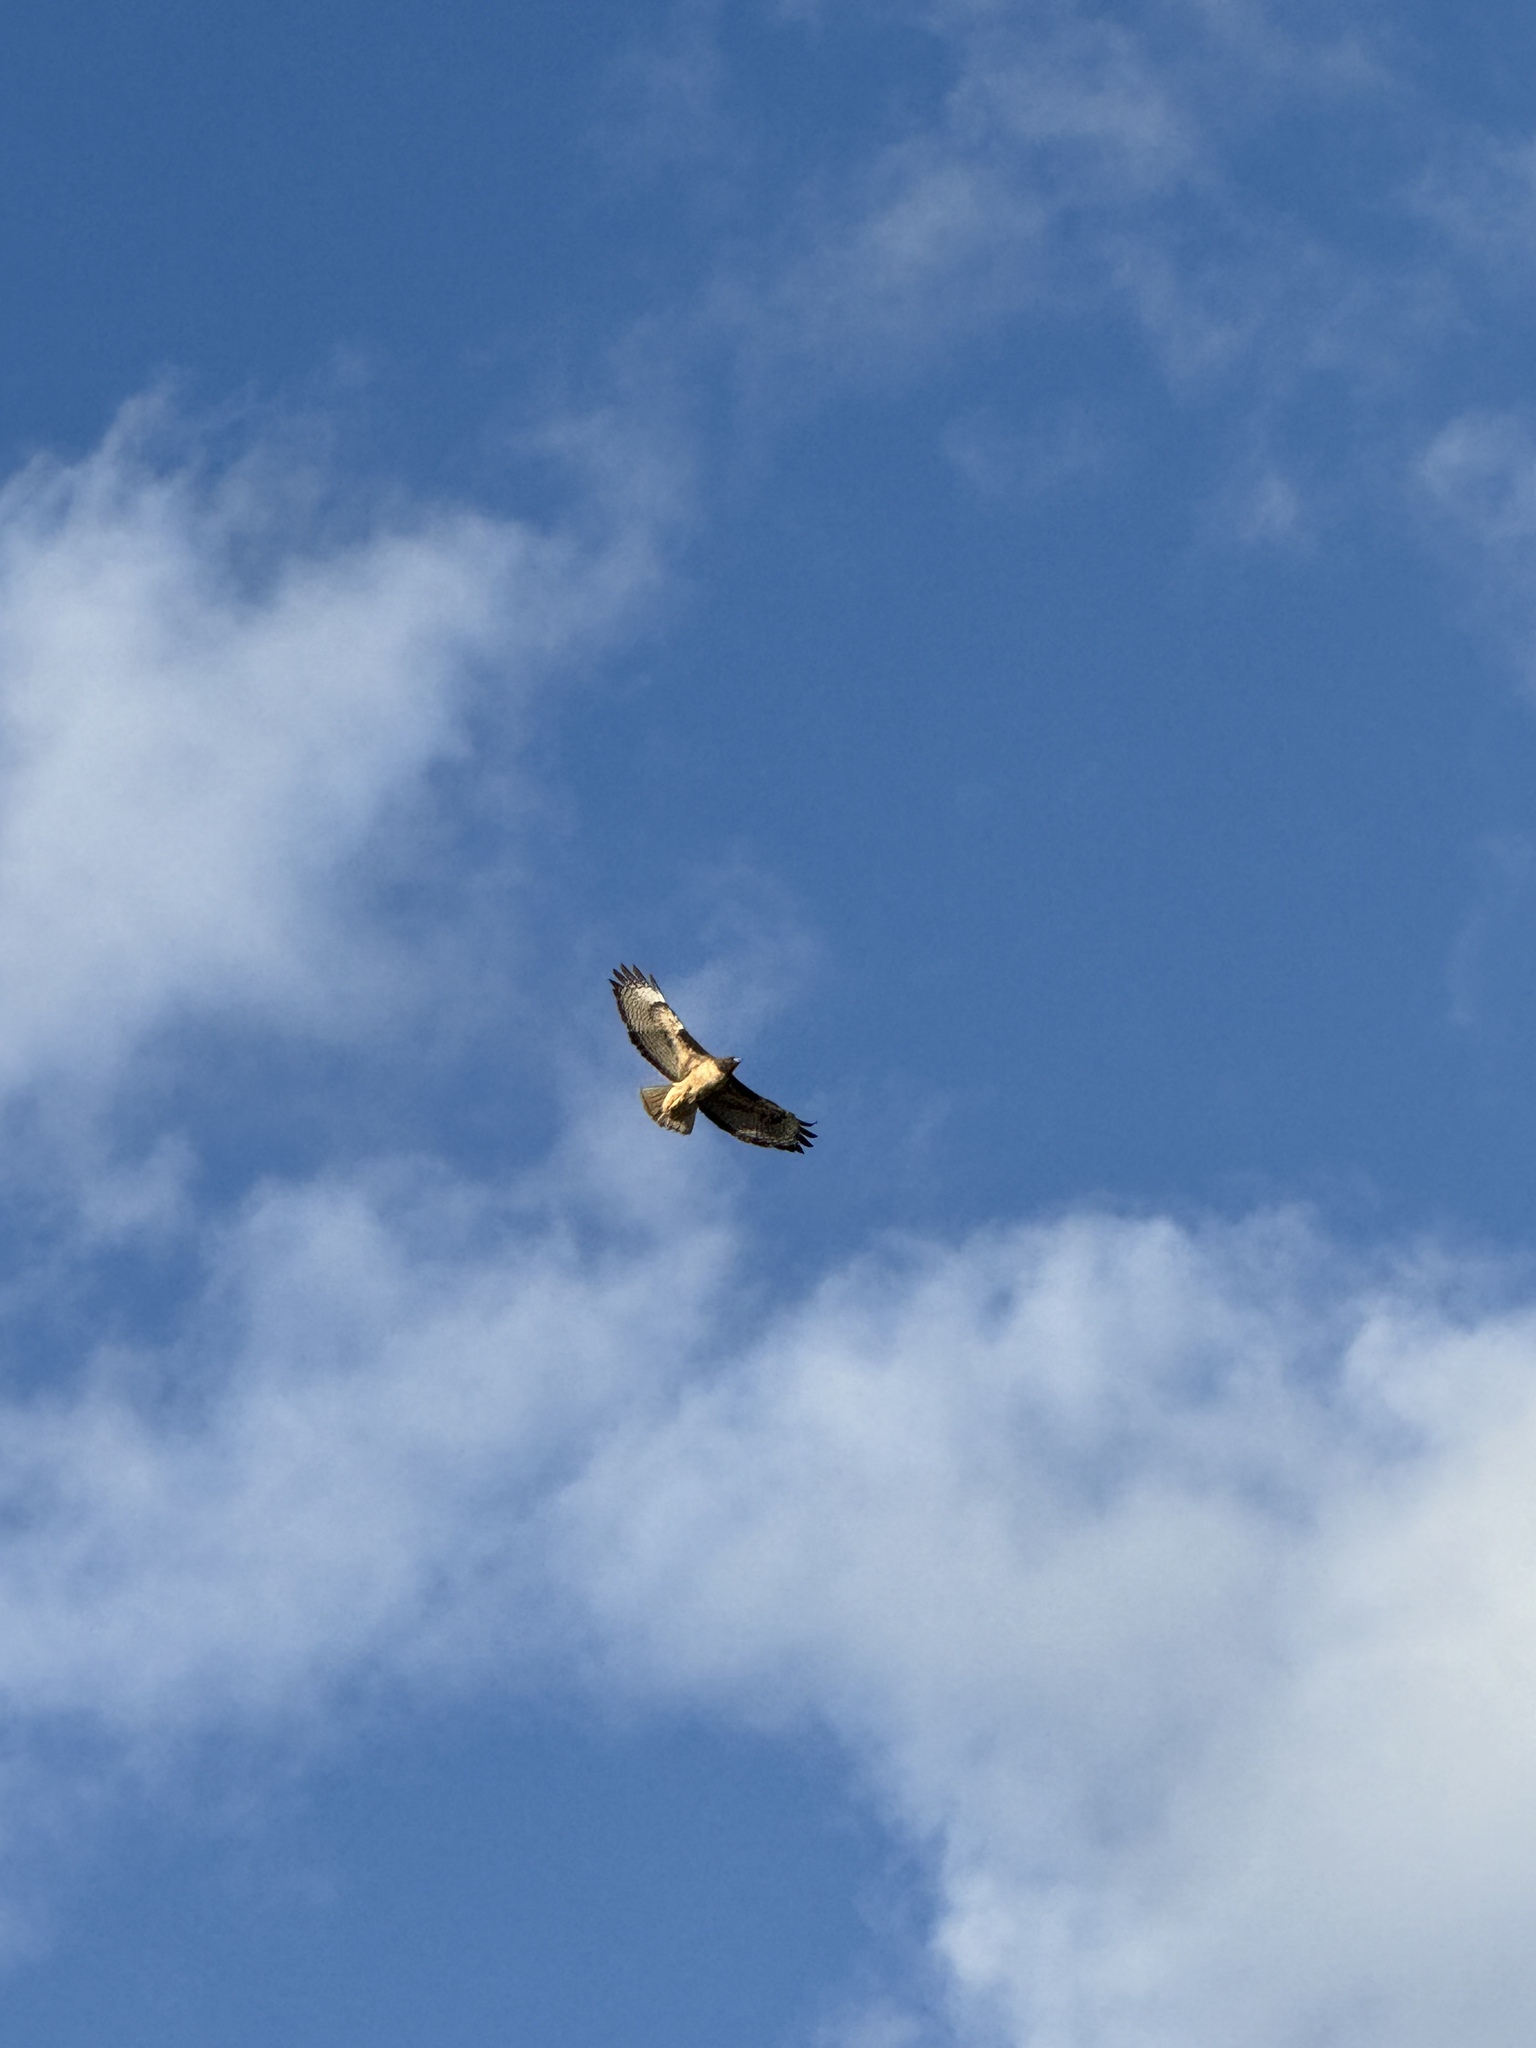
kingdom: Animalia
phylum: Chordata
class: Aves
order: Accipitriformes
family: Accipitridae
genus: Buteo
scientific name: Buteo jamaicensis
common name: Red-tailed hawk
